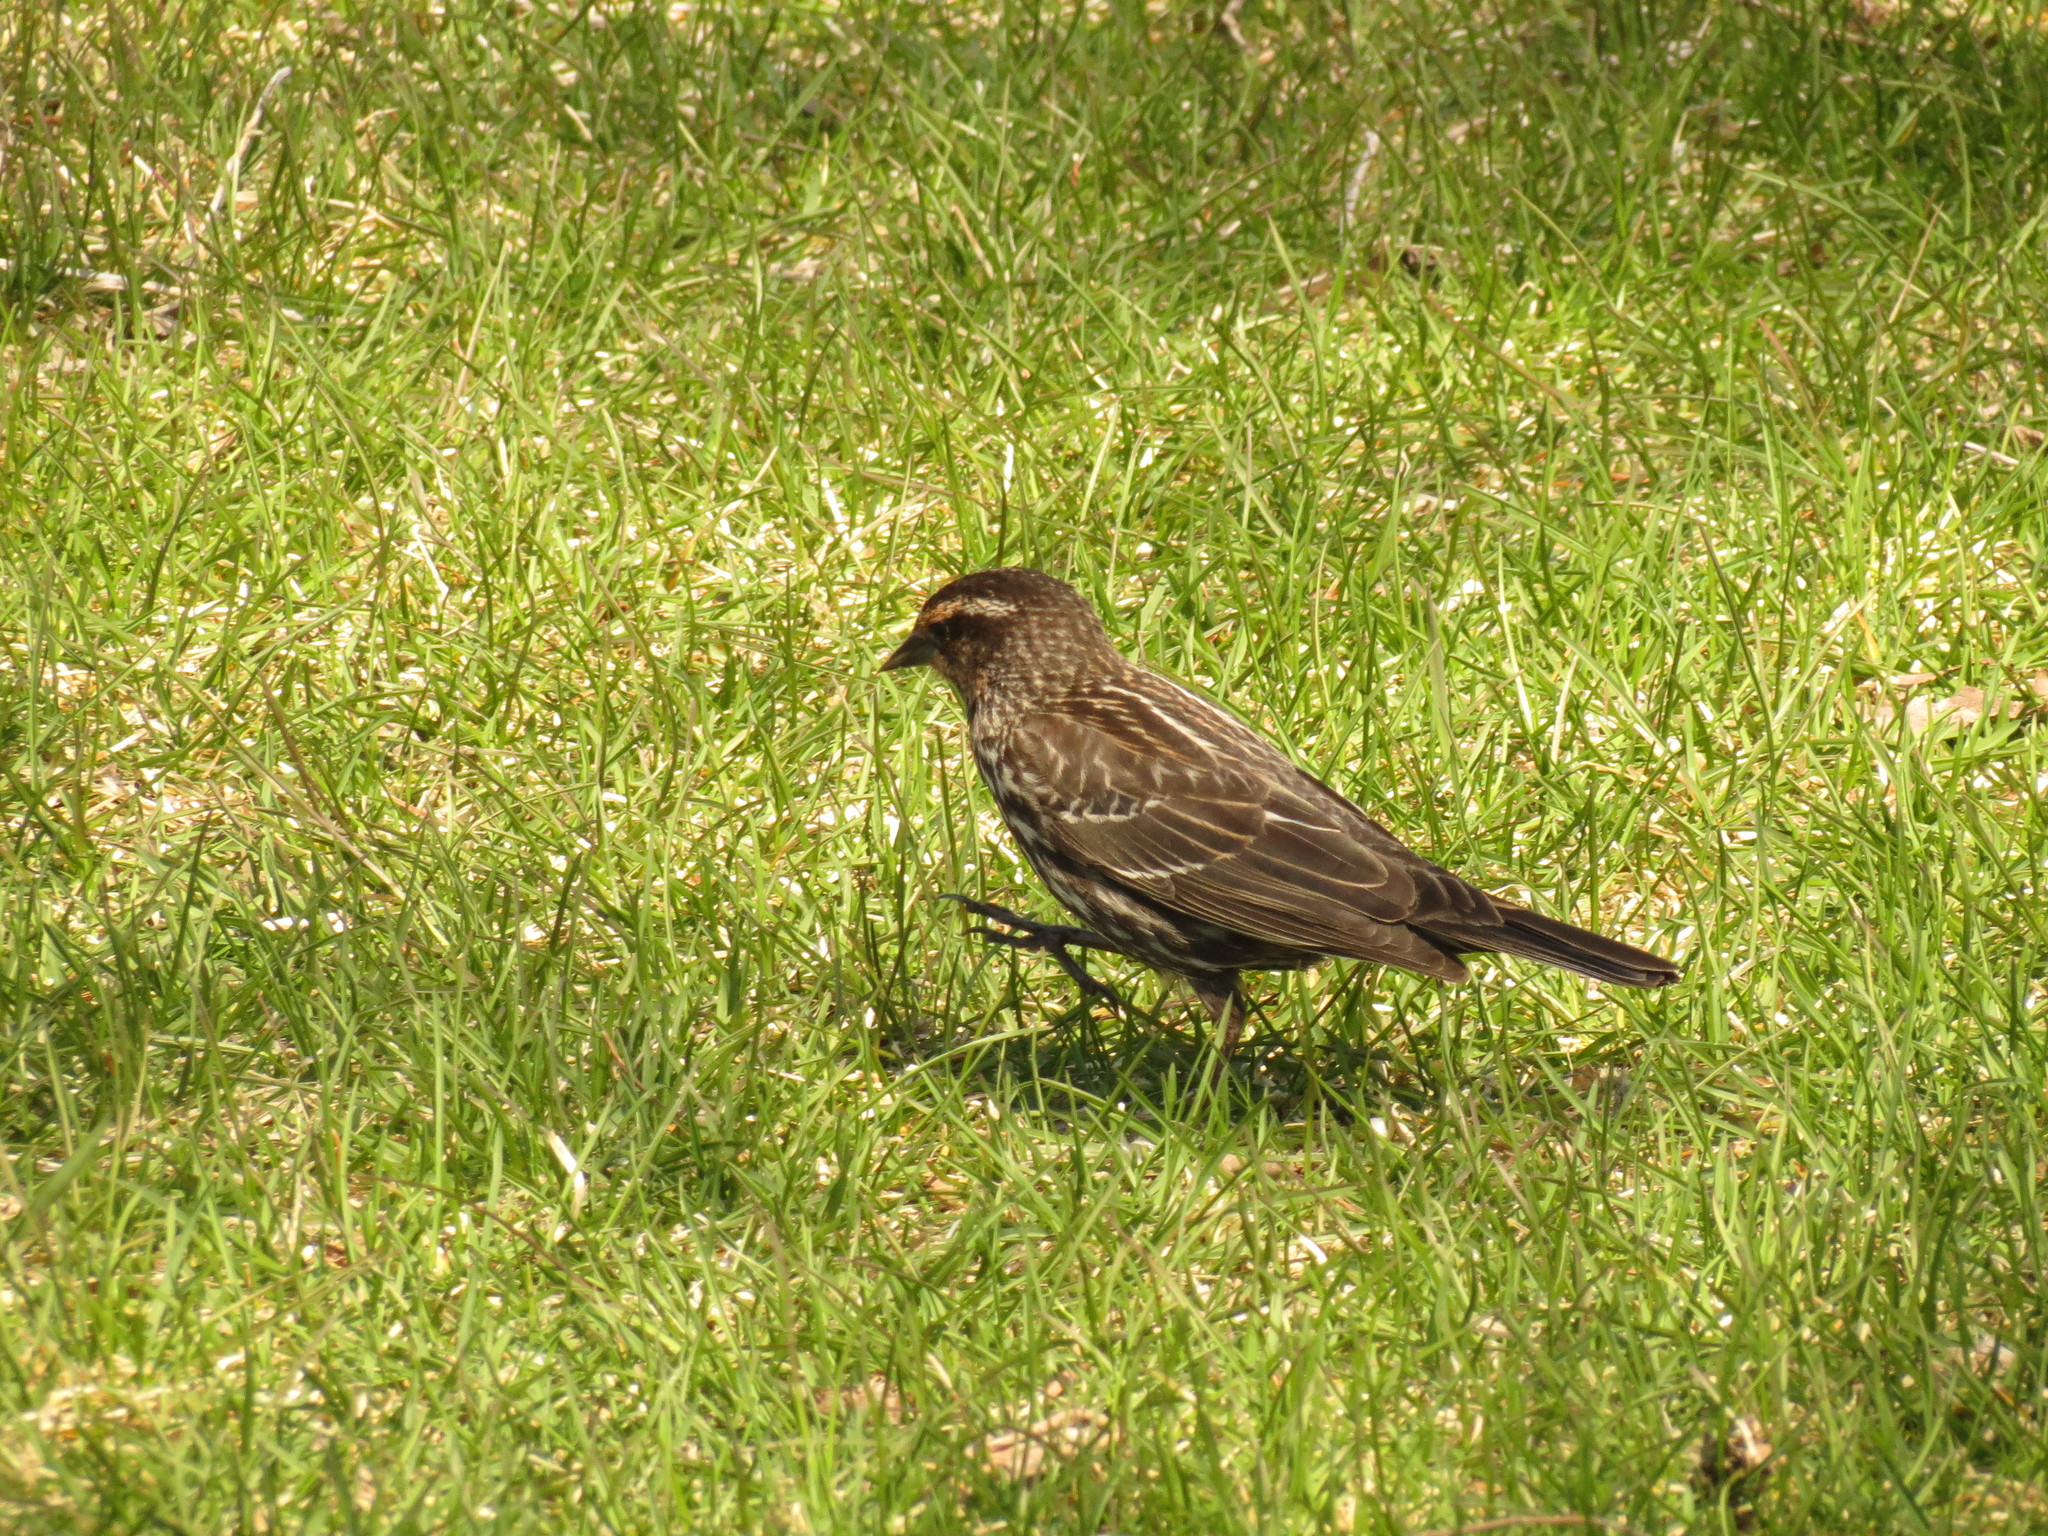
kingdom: Animalia
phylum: Chordata
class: Aves
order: Passeriformes
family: Icteridae
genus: Agelaius
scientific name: Agelaius phoeniceus
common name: Red-winged blackbird
